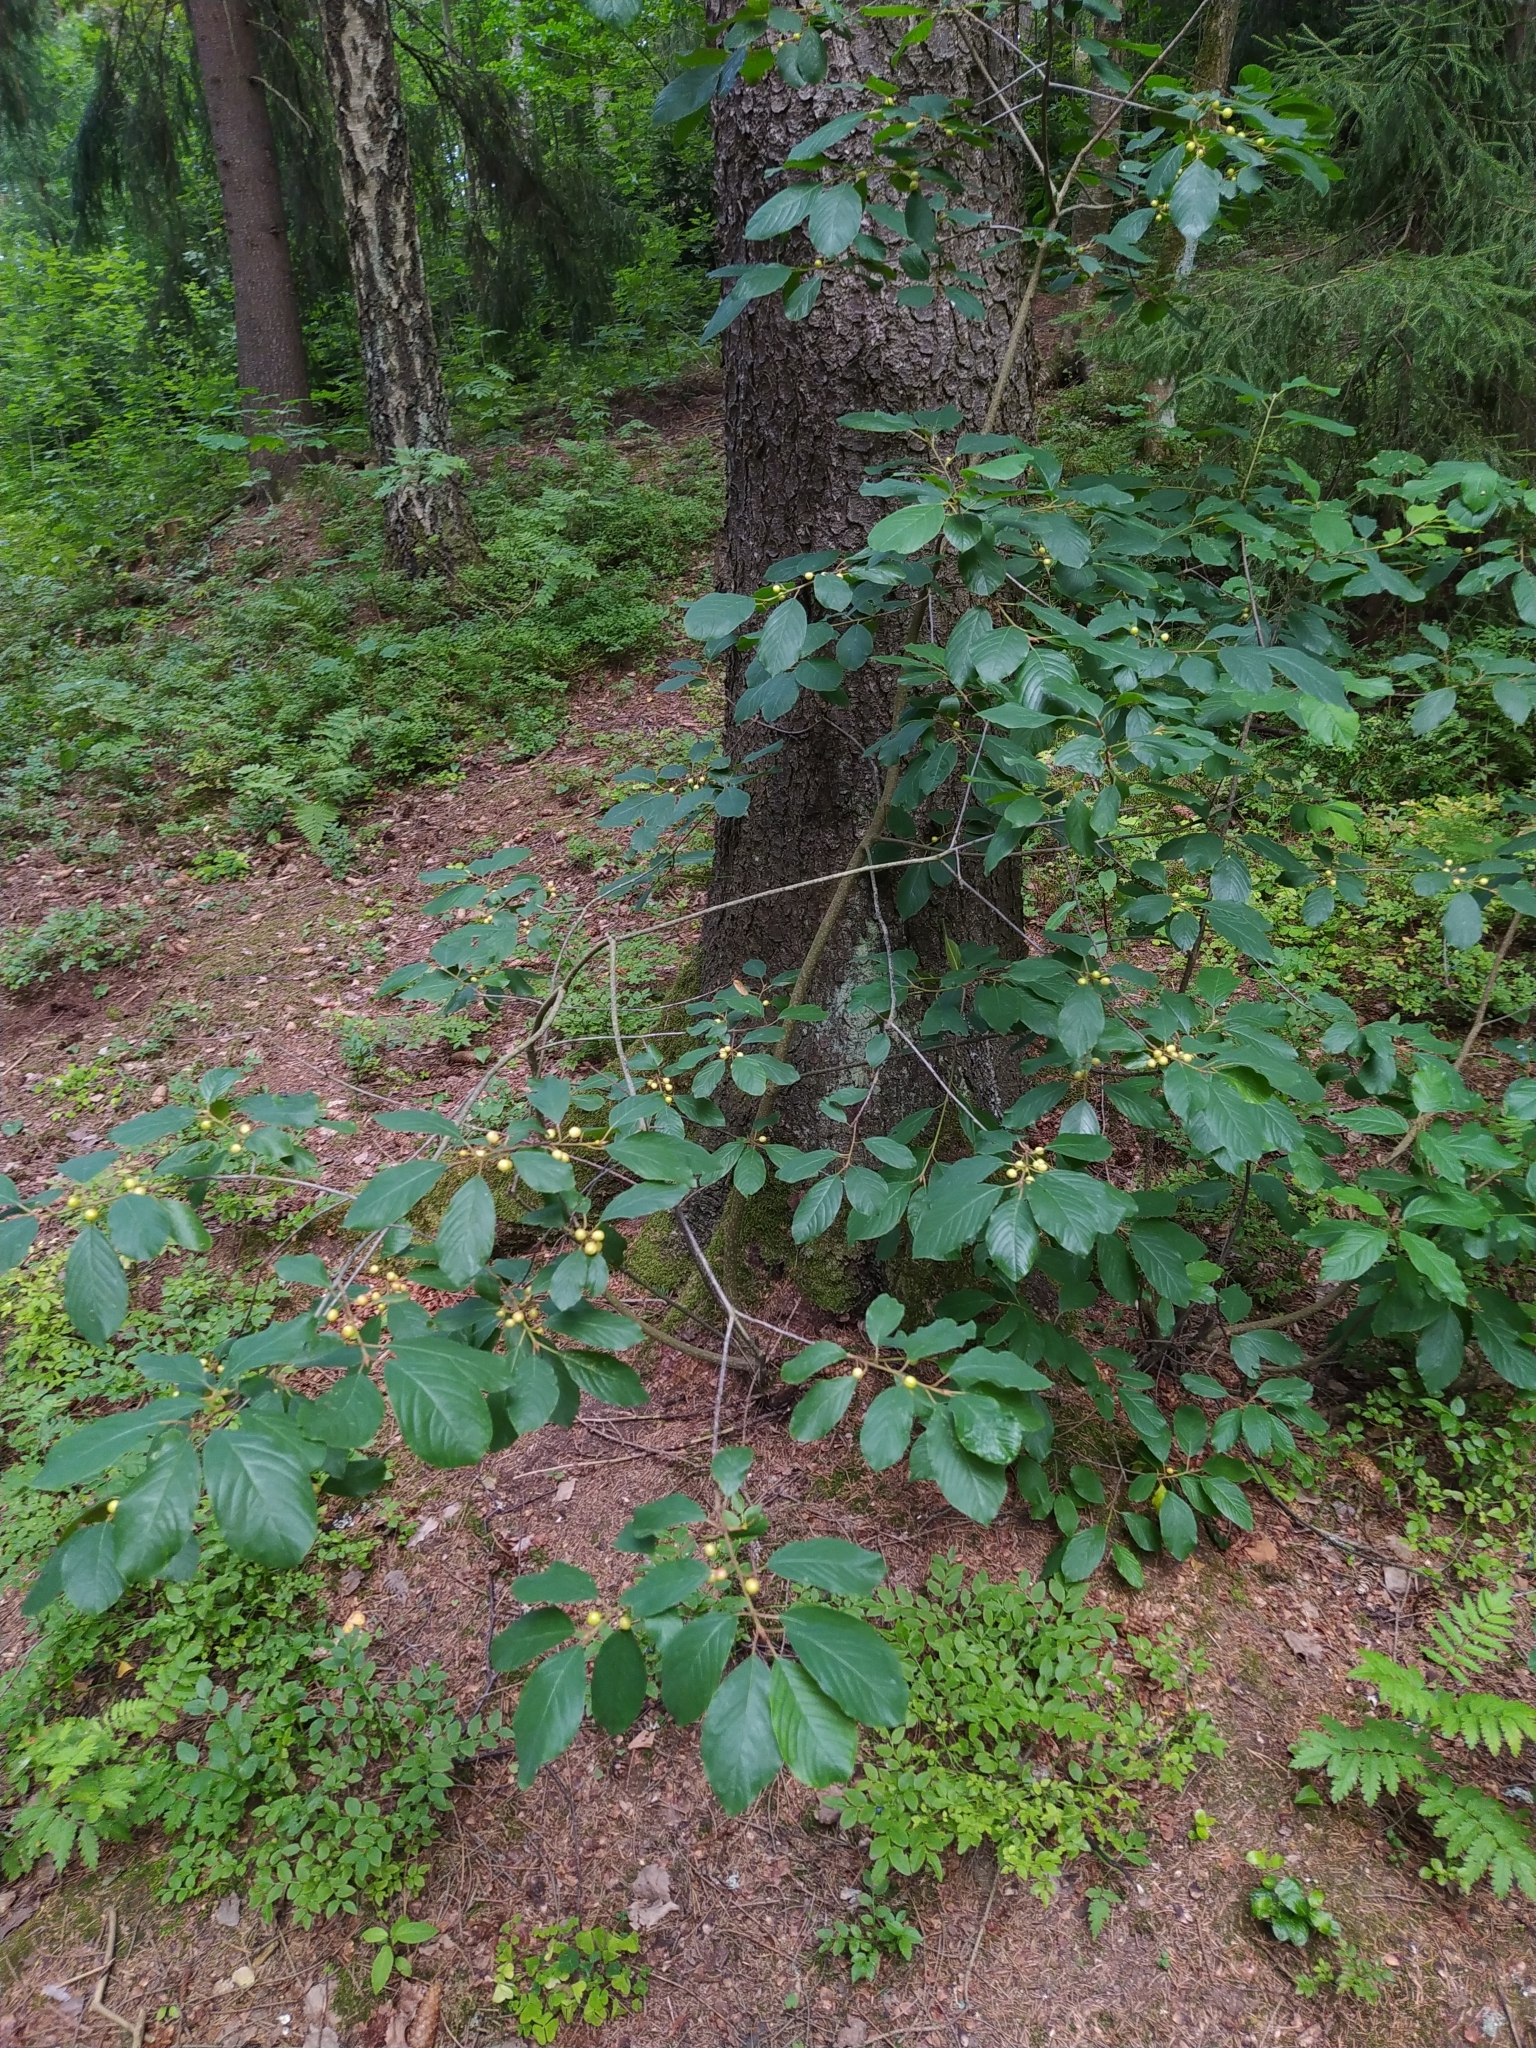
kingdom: Plantae
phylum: Tracheophyta
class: Magnoliopsida
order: Rosales
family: Rhamnaceae
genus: Frangula
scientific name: Frangula alnus
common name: Alder buckthorn
